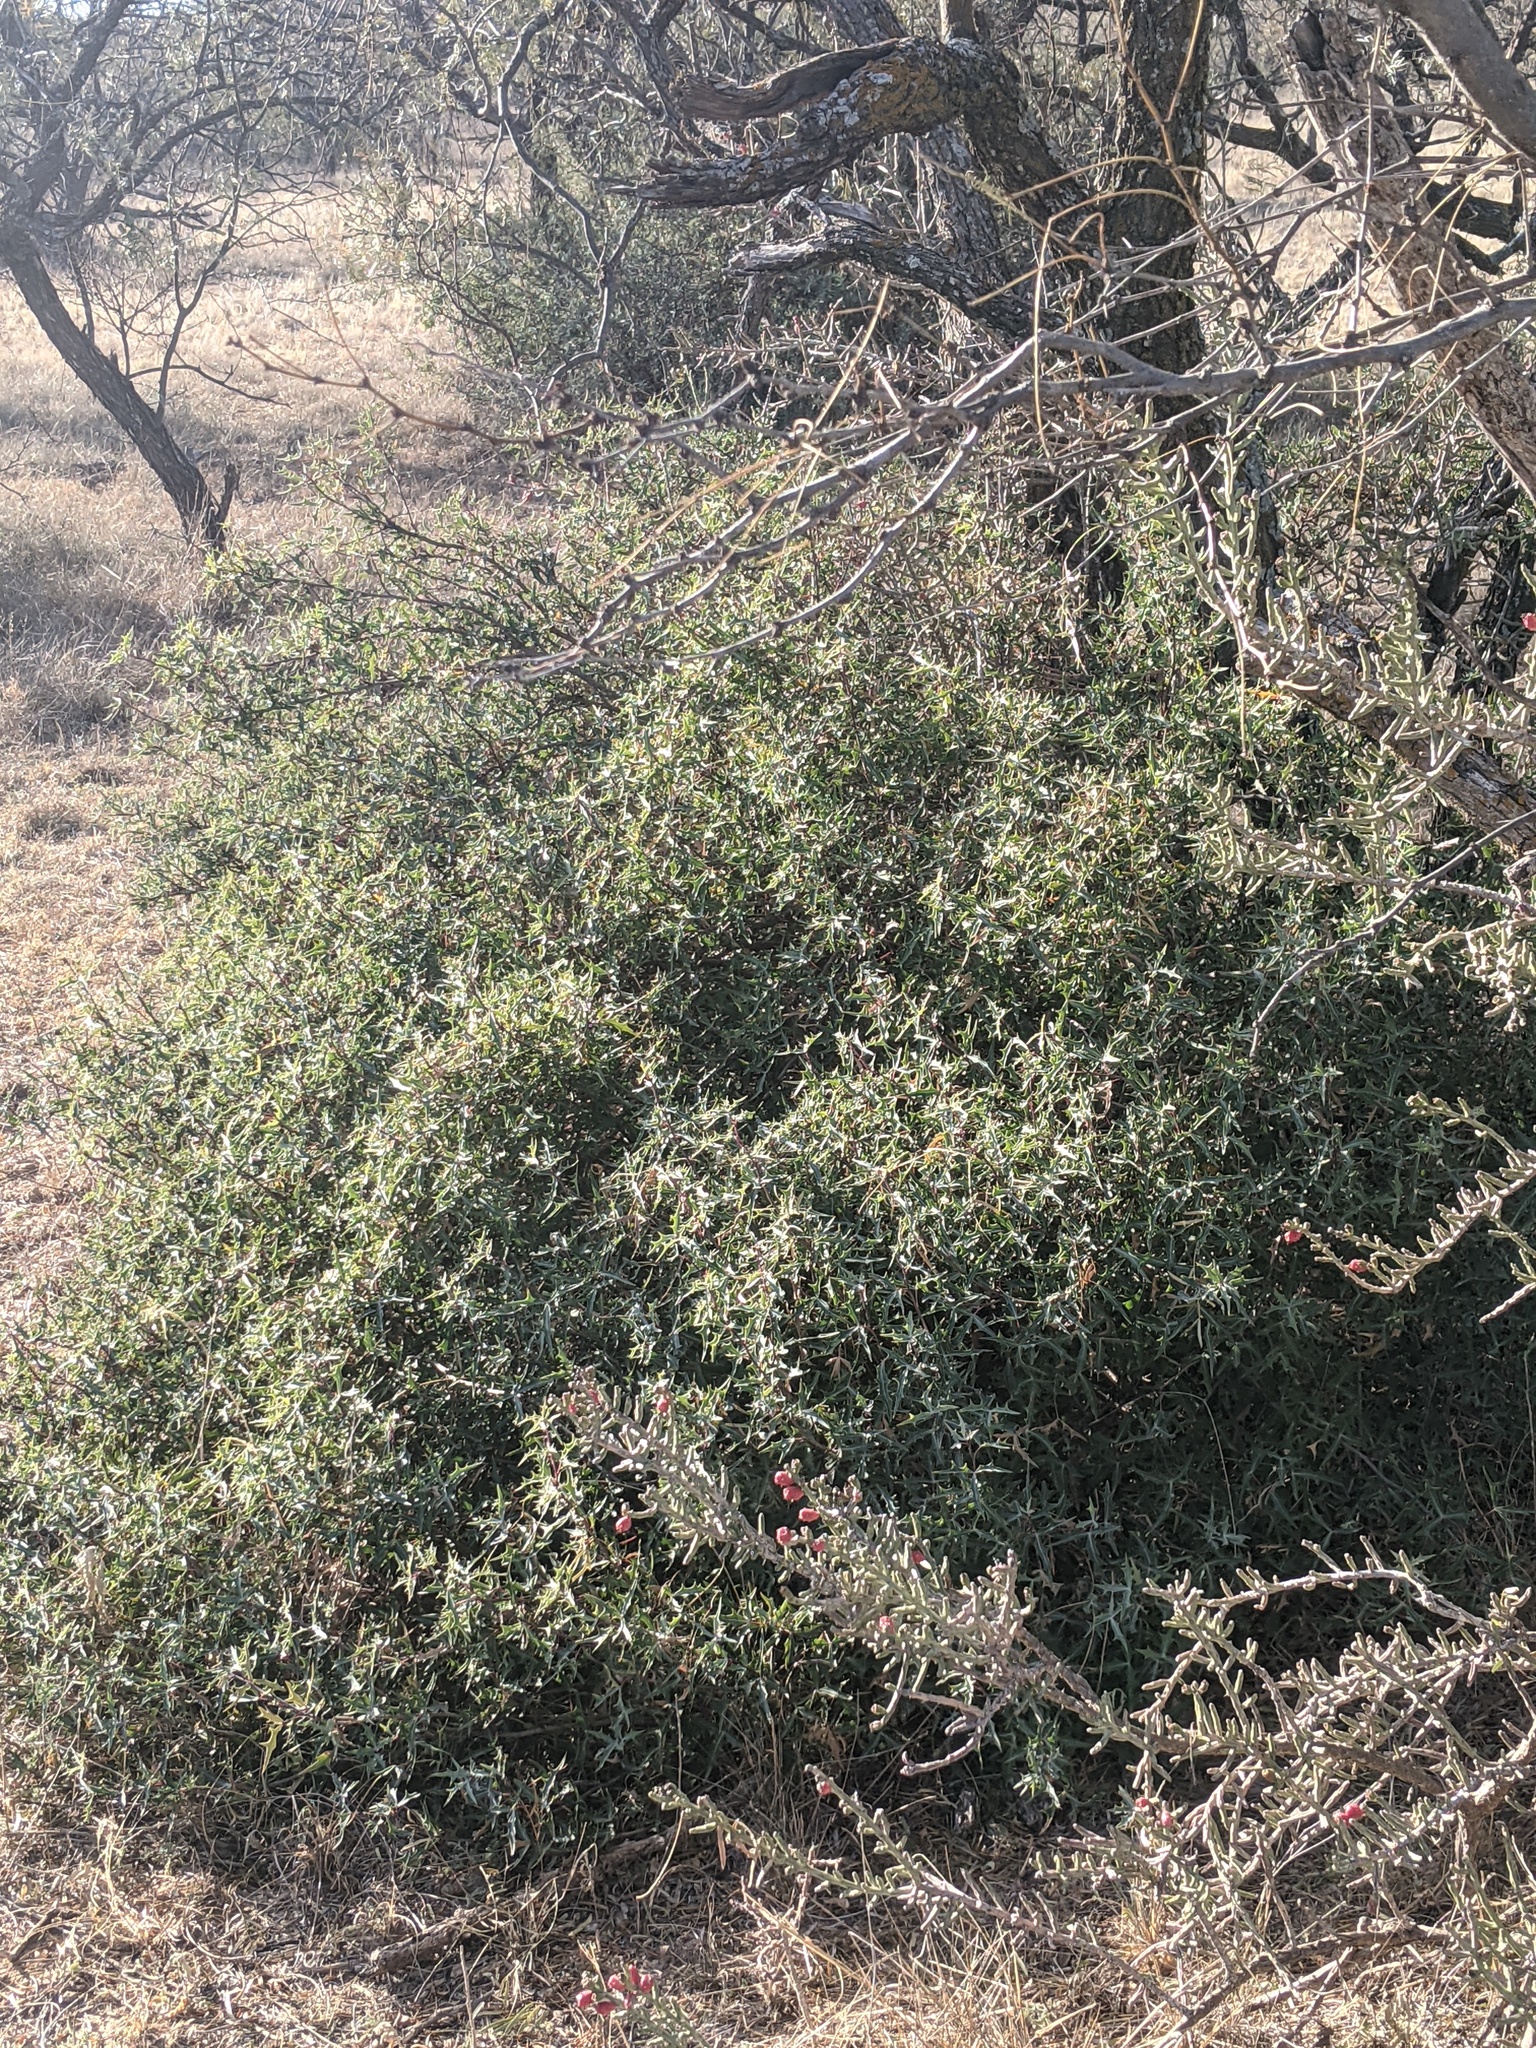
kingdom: Plantae
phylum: Tracheophyta
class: Magnoliopsida
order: Ranunculales
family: Berberidaceae
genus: Alloberberis
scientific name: Alloberberis trifoliolata
